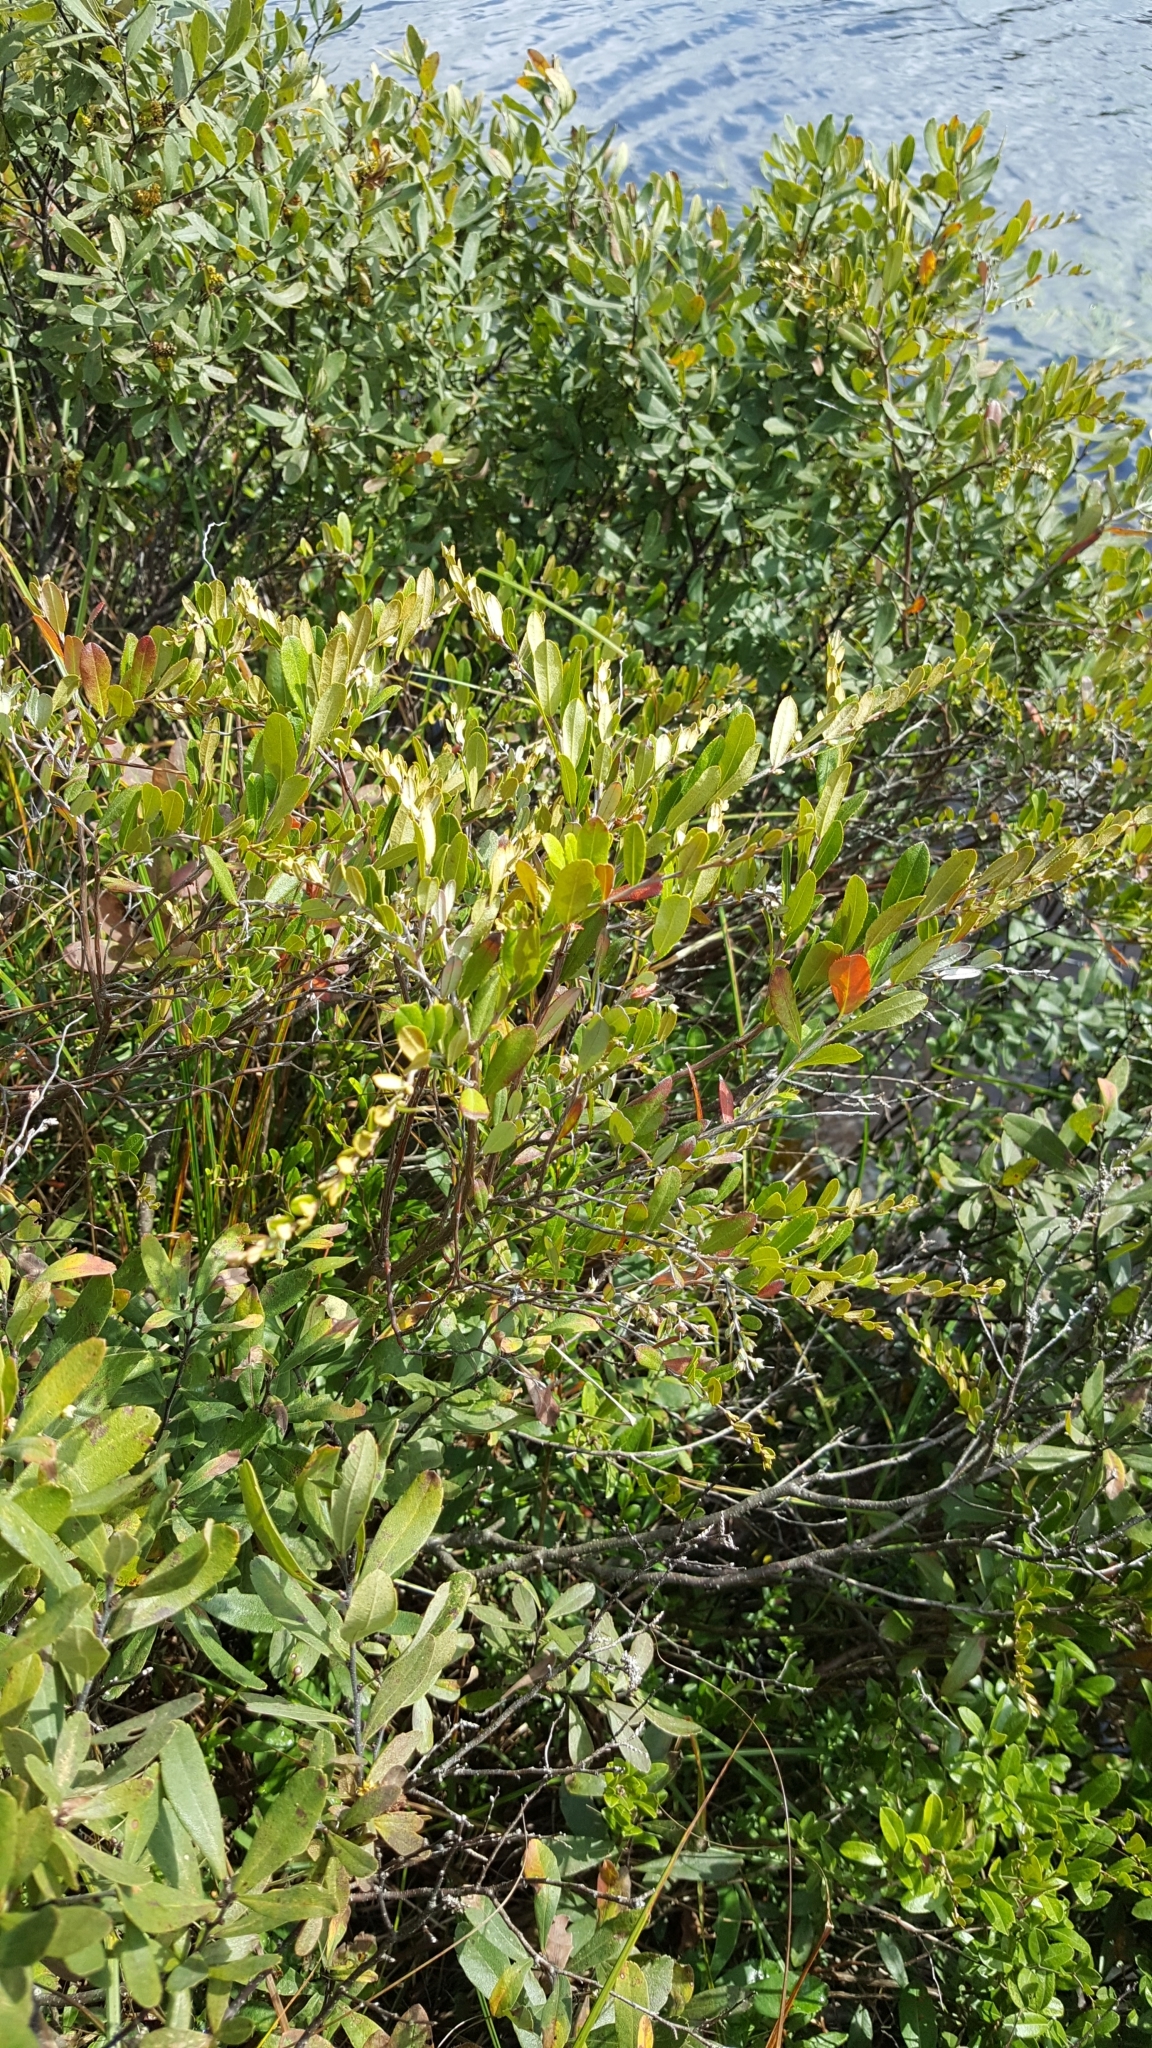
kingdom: Plantae
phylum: Tracheophyta
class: Magnoliopsida
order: Ericales
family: Ericaceae
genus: Chamaedaphne
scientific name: Chamaedaphne calyculata
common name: Leatherleaf
